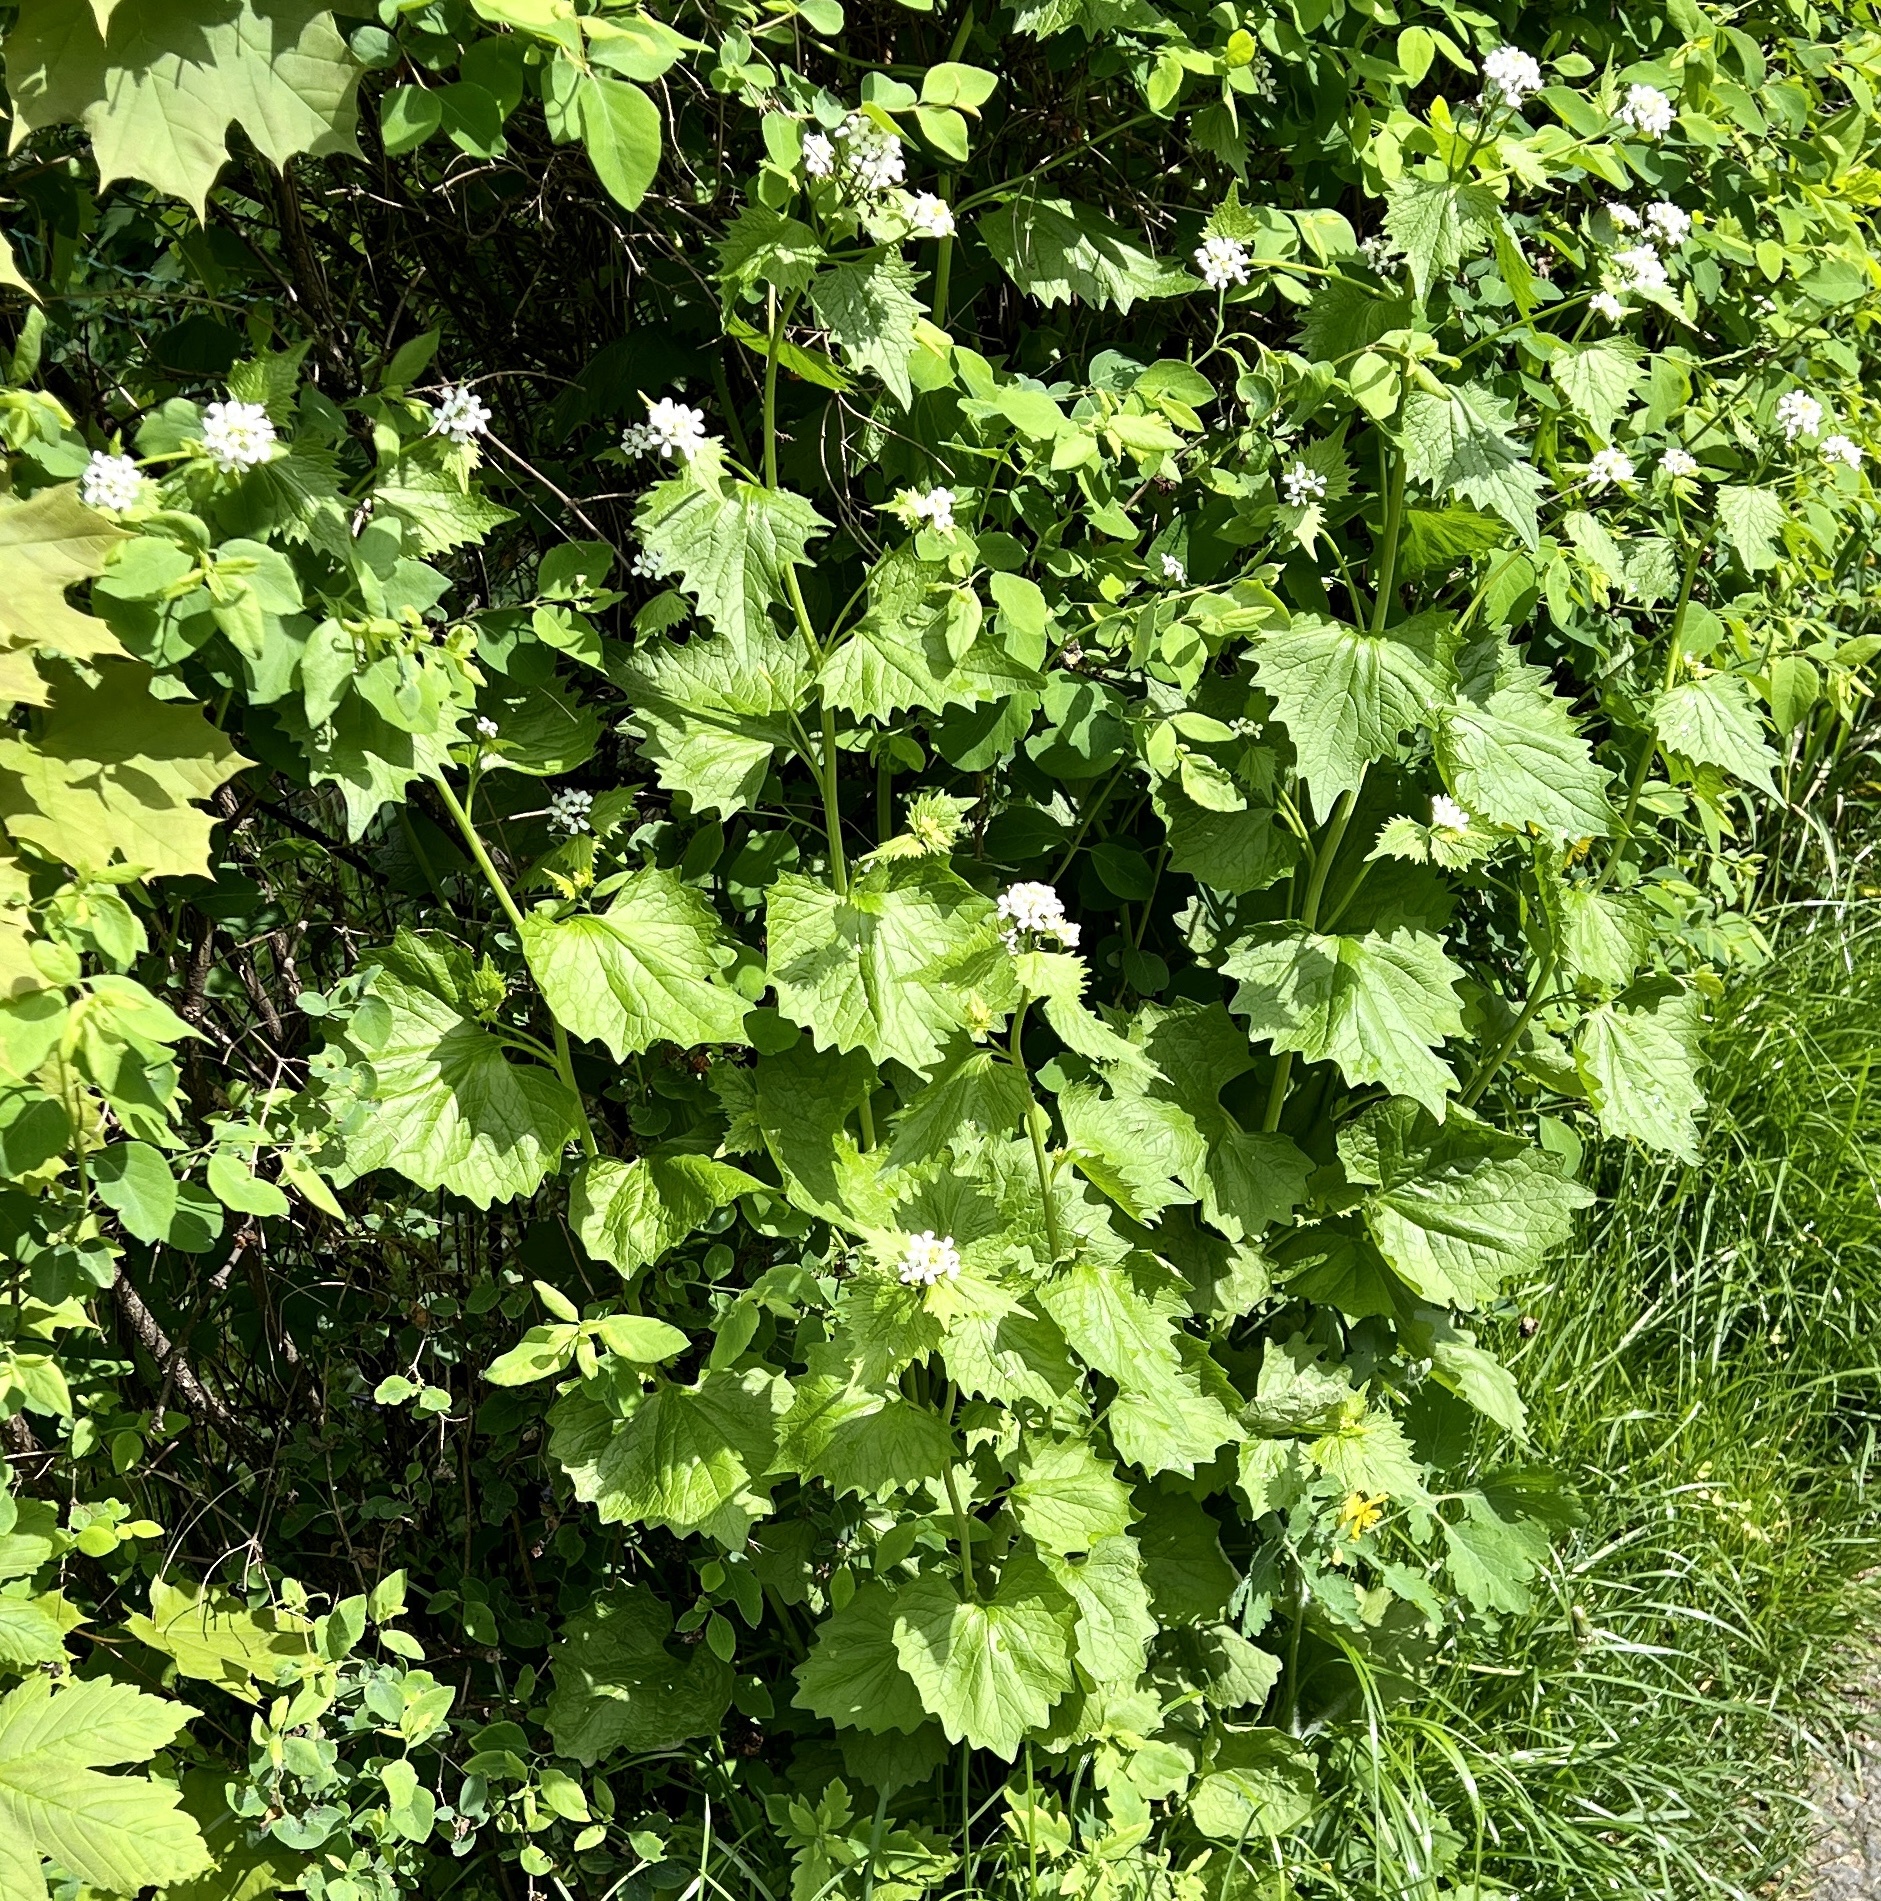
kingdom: Plantae
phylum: Tracheophyta
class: Magnoliopsida
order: Brassicales
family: Brassicaceae
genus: Alliaria
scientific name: Alliaria petiolata
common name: Garlic mustard
